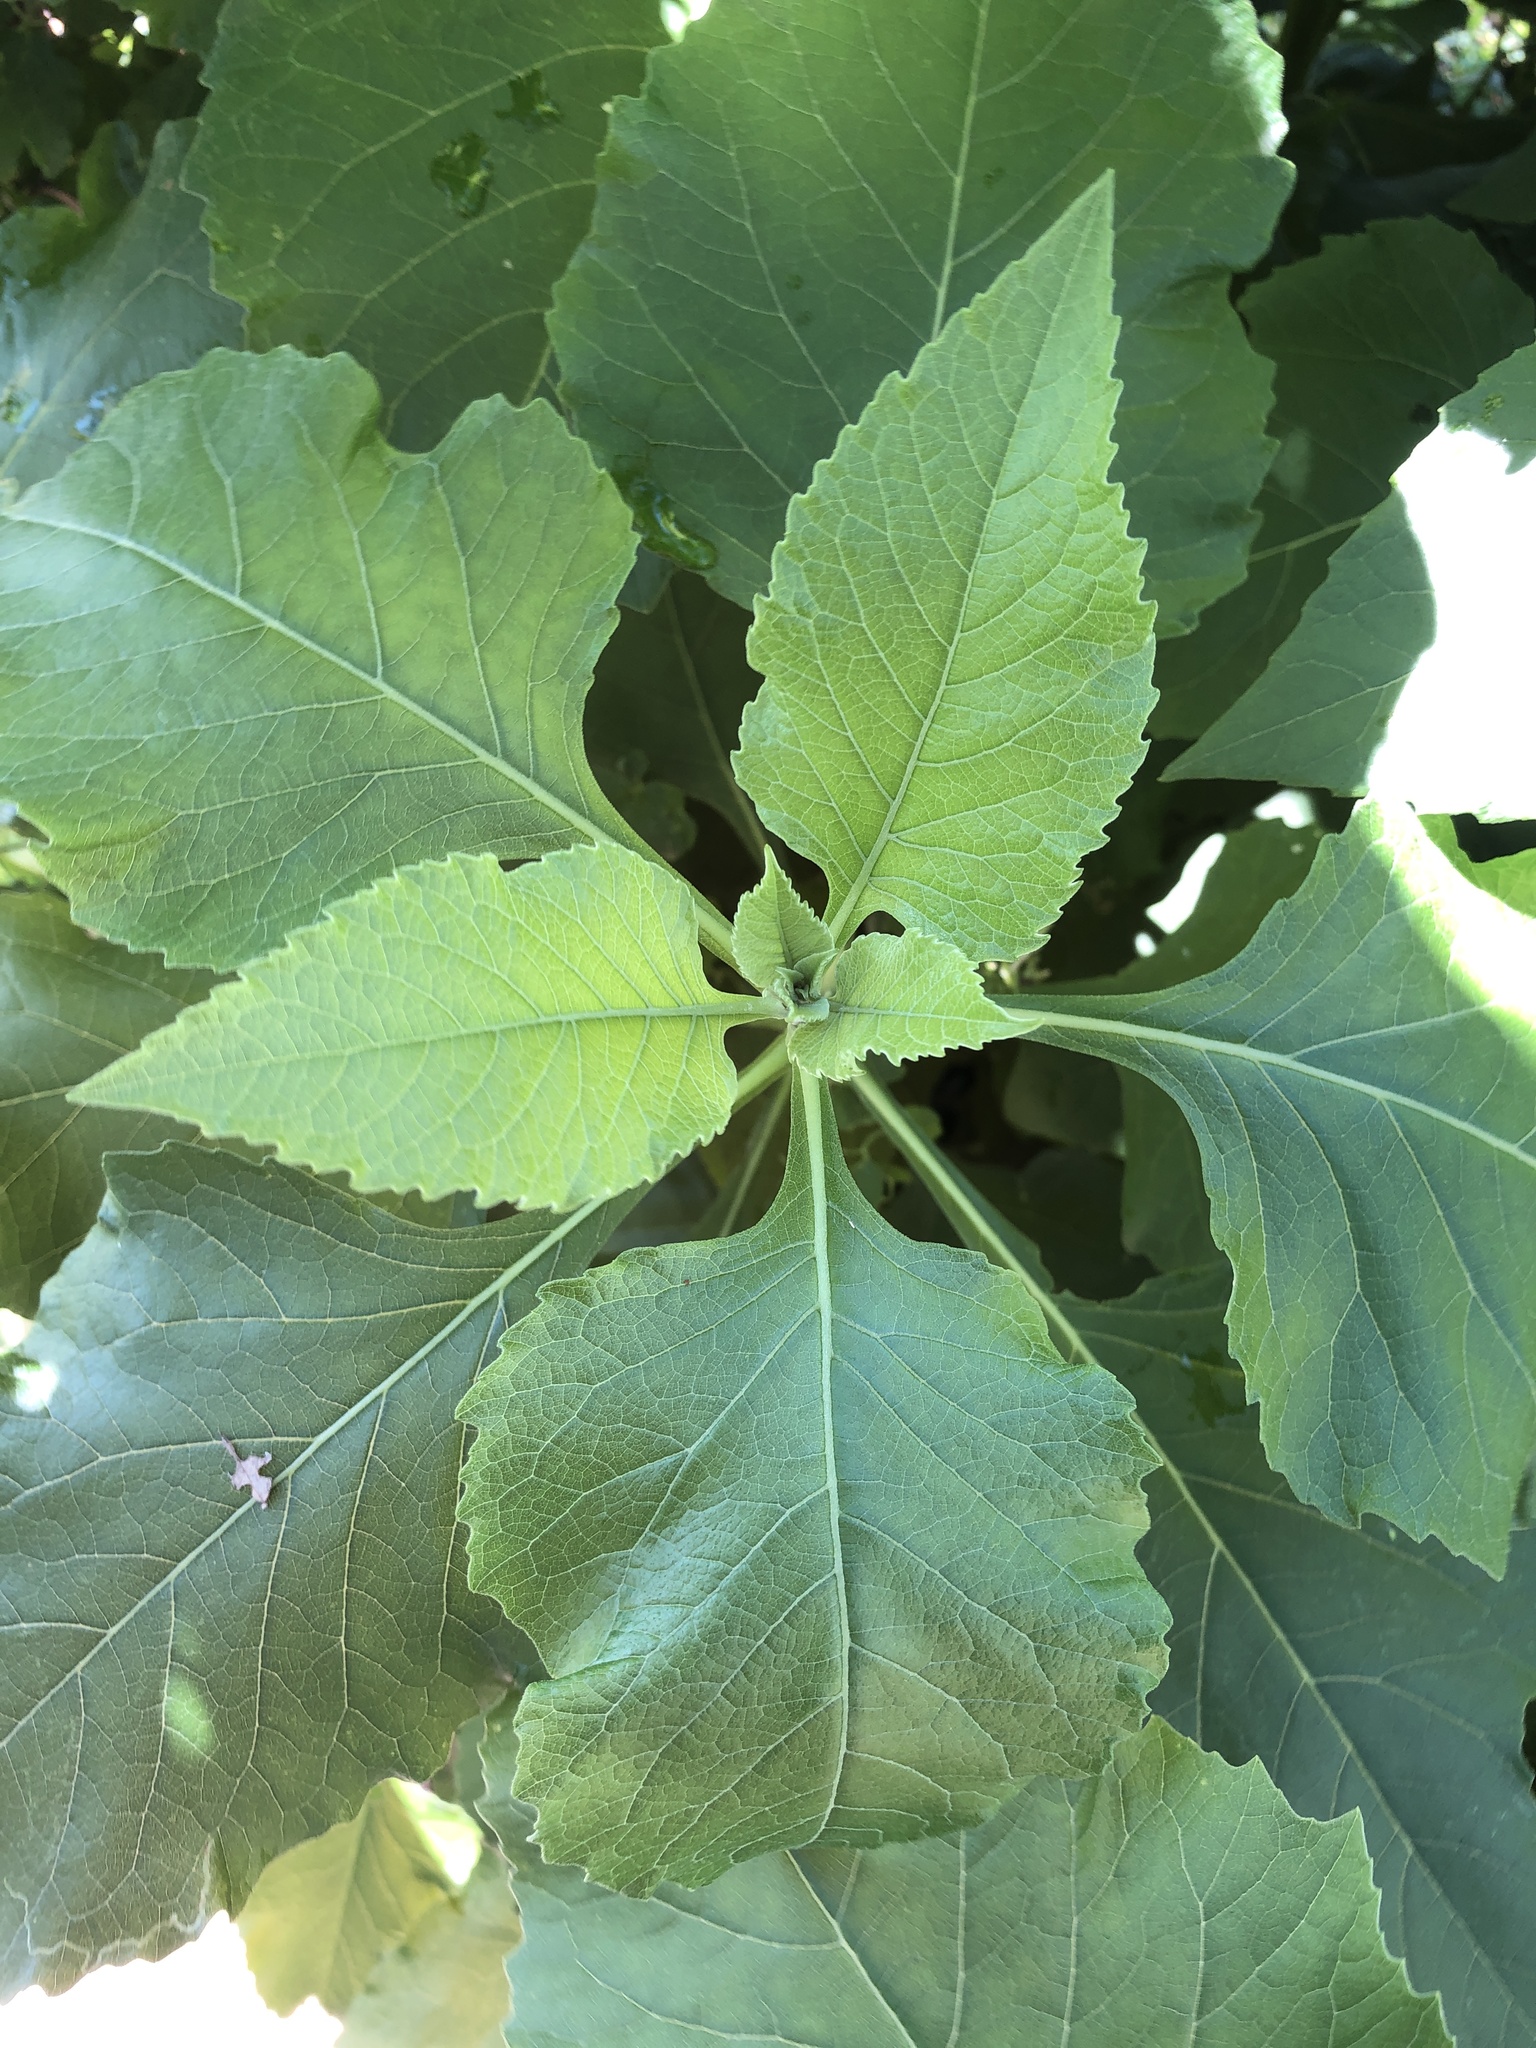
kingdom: Plantae
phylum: Tracheophyta
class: Magnoliopsida
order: Asterales
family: Asteraceae
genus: Verbesina
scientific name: Verbesina virginica
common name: Frostweed
